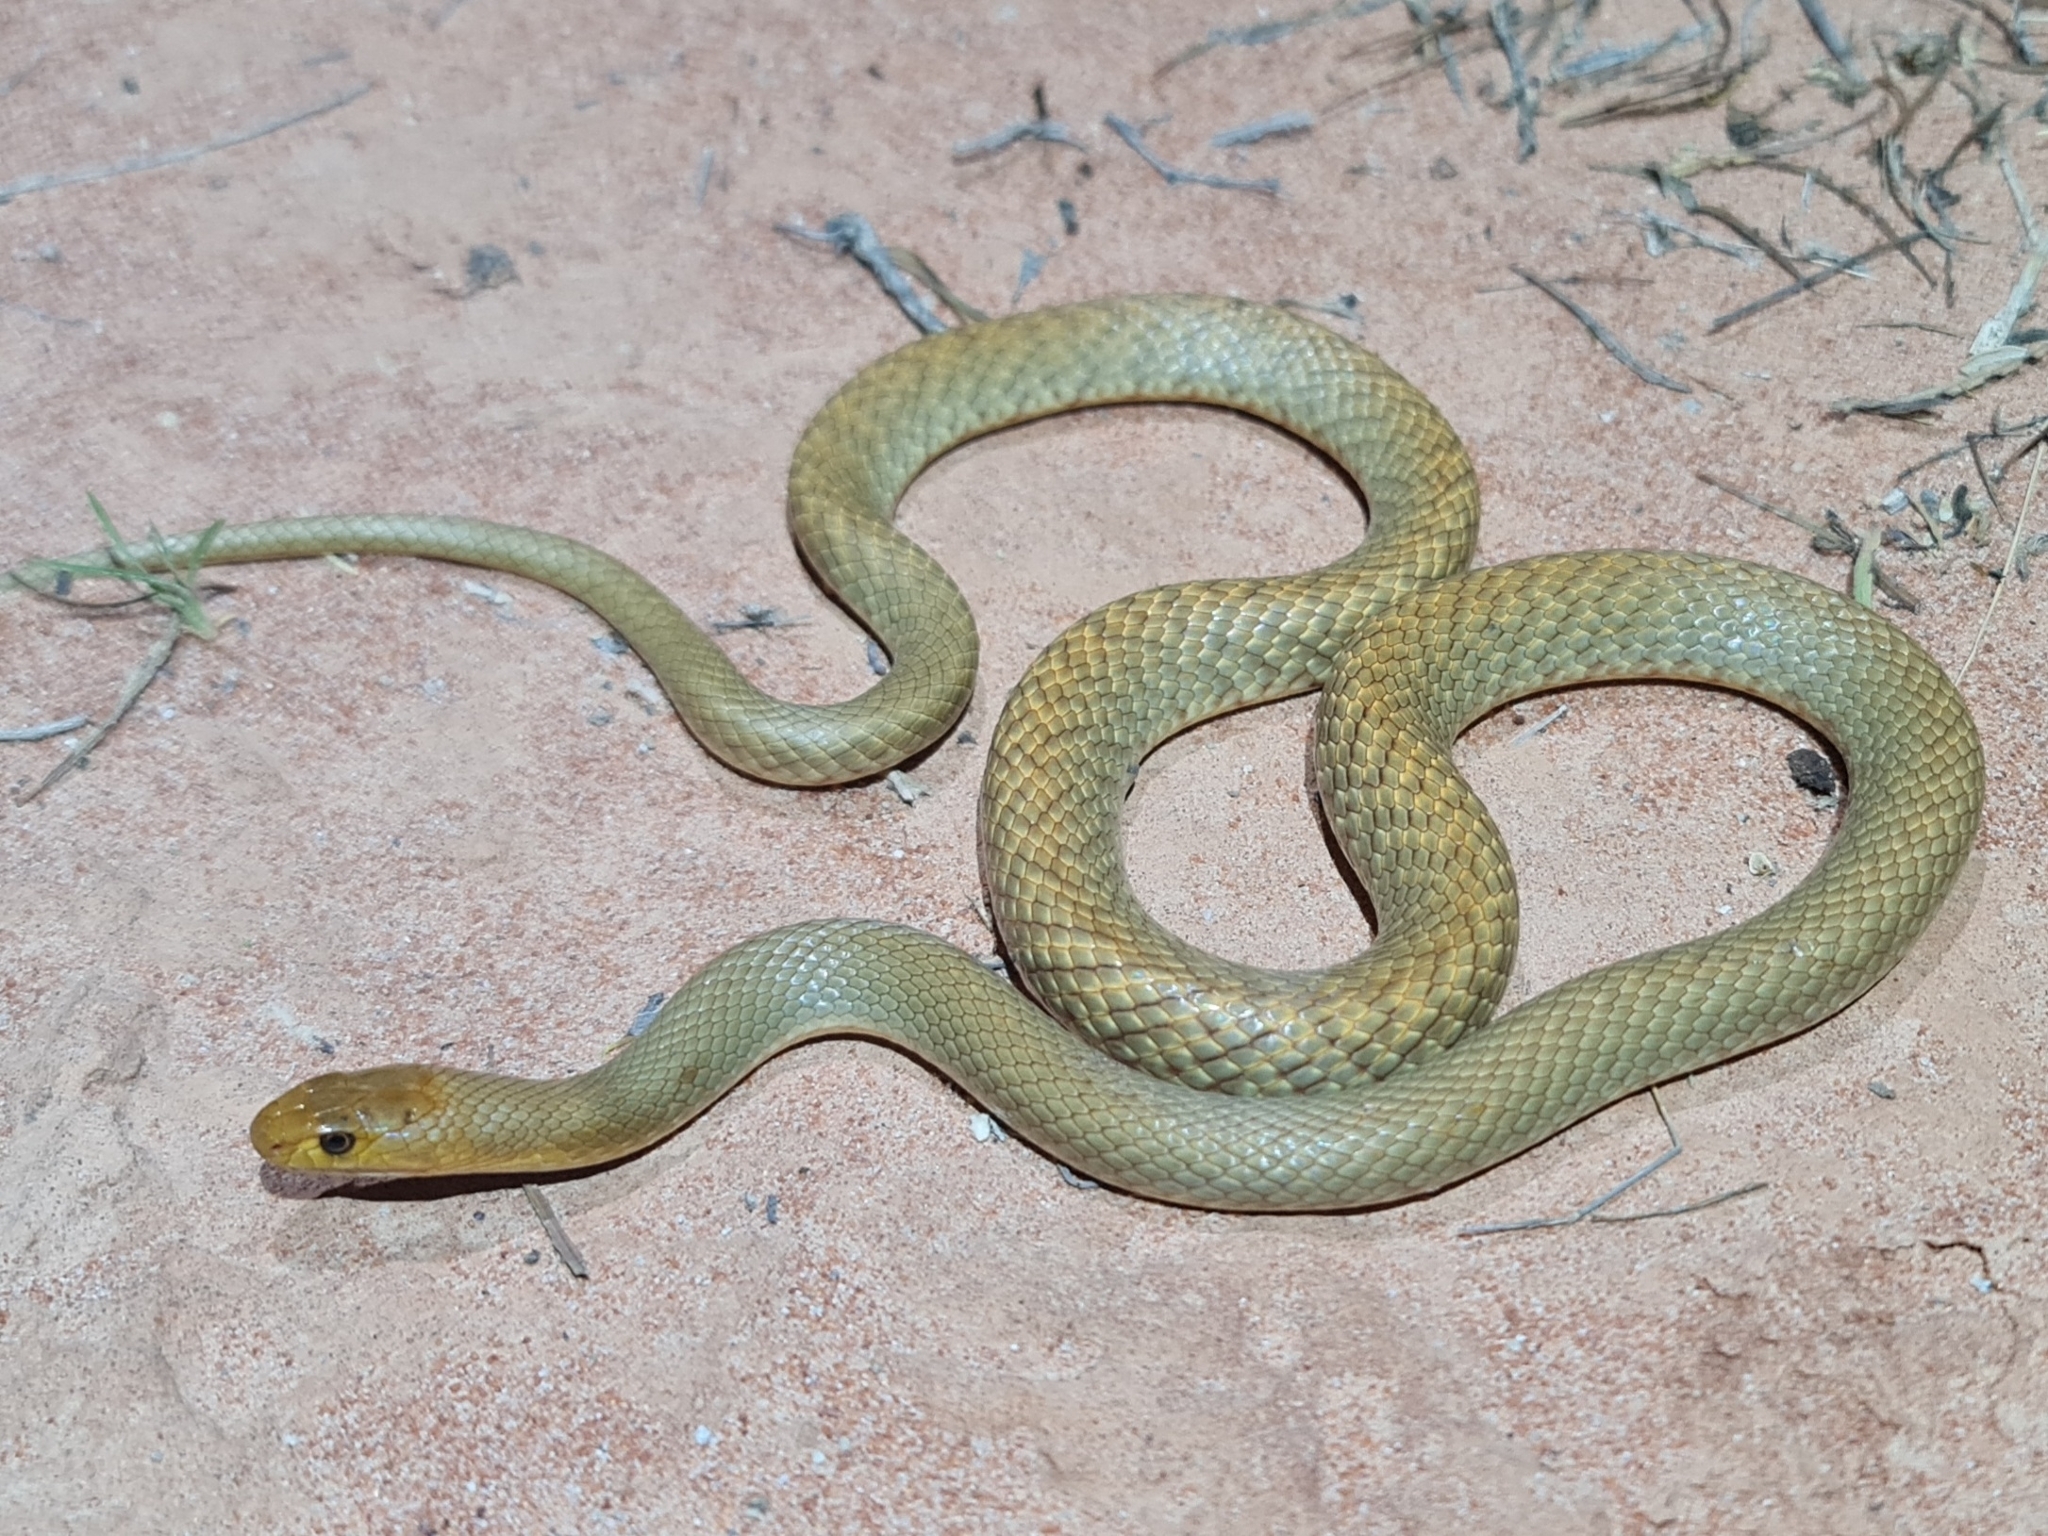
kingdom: Animalia
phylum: Chordata
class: Squamata
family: Elapidae
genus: Pseudonaja
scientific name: Pseudonaja mengdeni
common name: Gwardar
